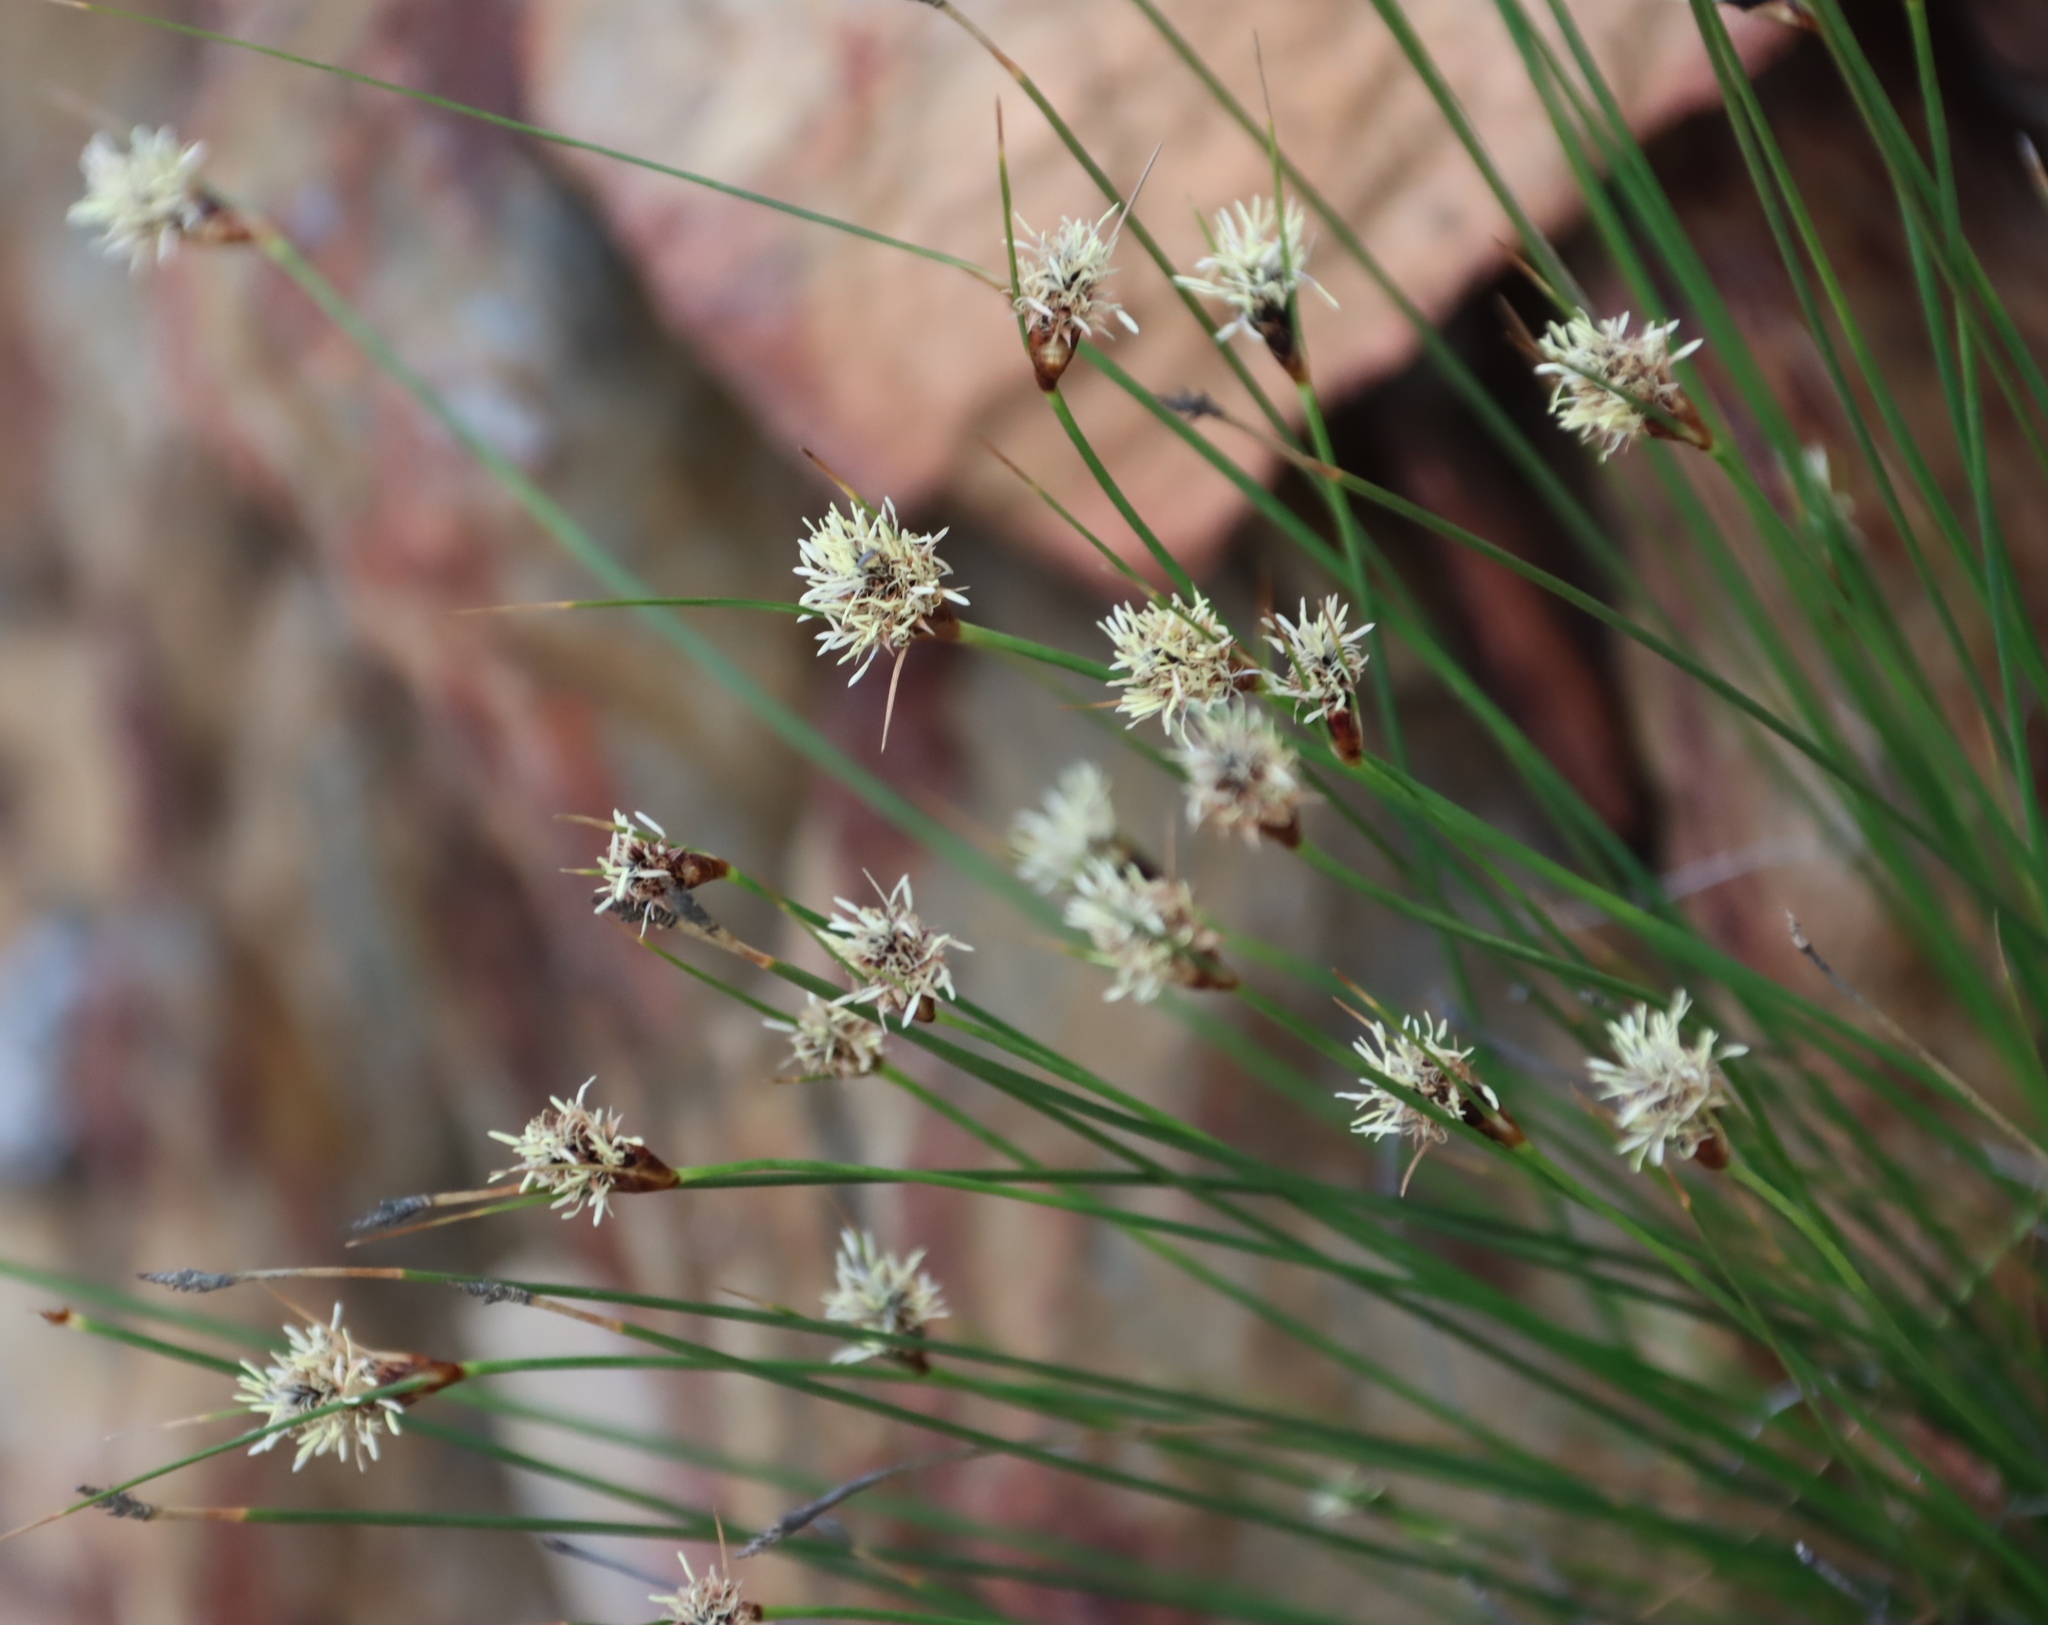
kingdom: Plantae
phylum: Tracheophyta
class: Liliopsida
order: Poales
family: Cyperaceae
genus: Ficinia
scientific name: Ficinia nigrescens
